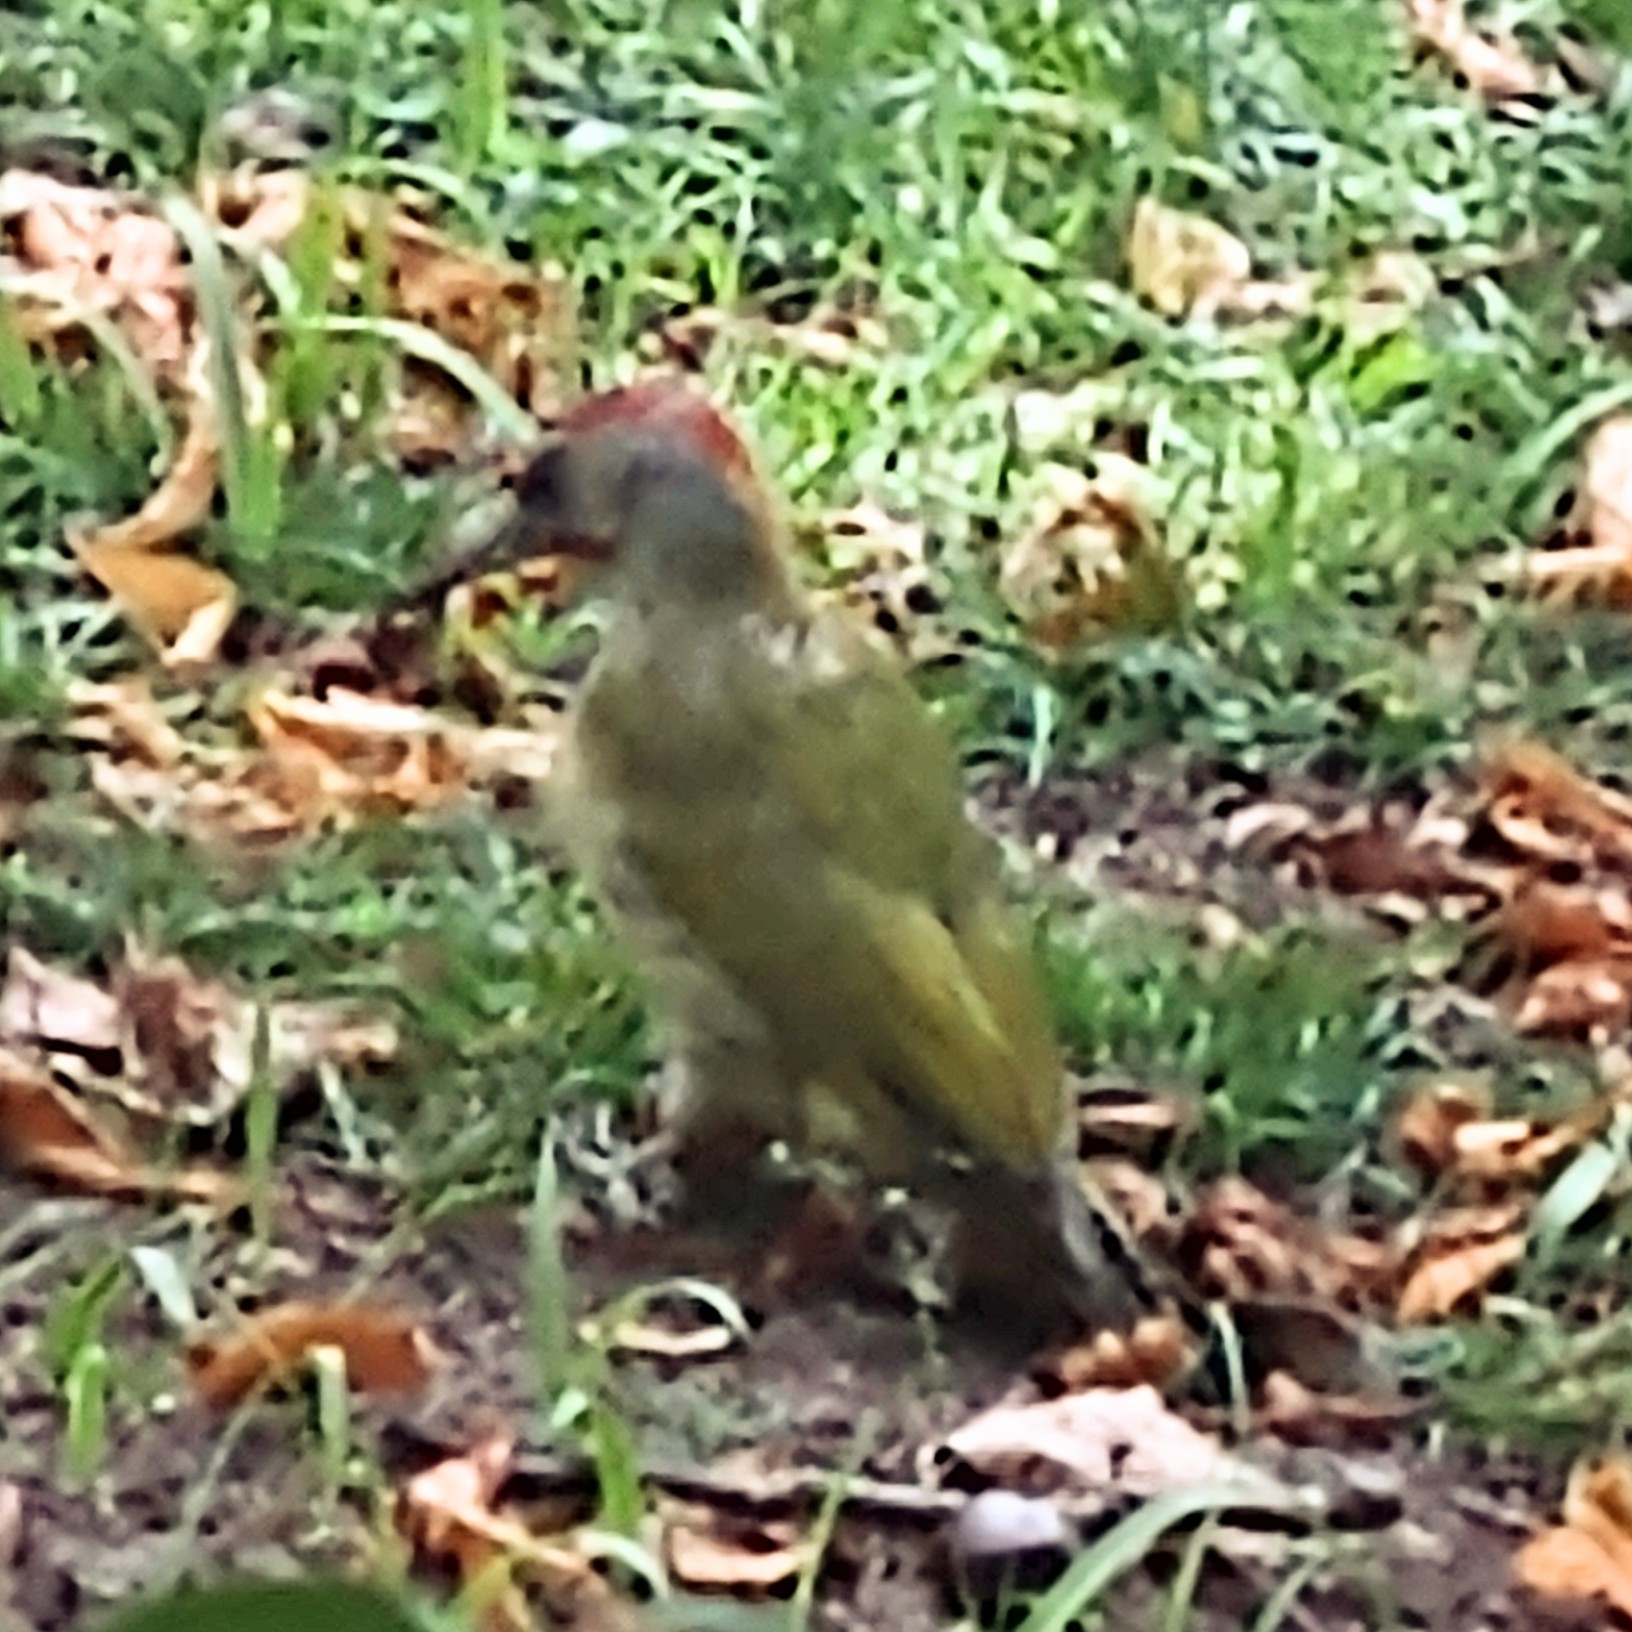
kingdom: Animalia
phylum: Chordata
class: Aves
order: Piciformes
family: Picidae
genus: Picus
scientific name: Picus sharpei
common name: Iberian green woodpecker
